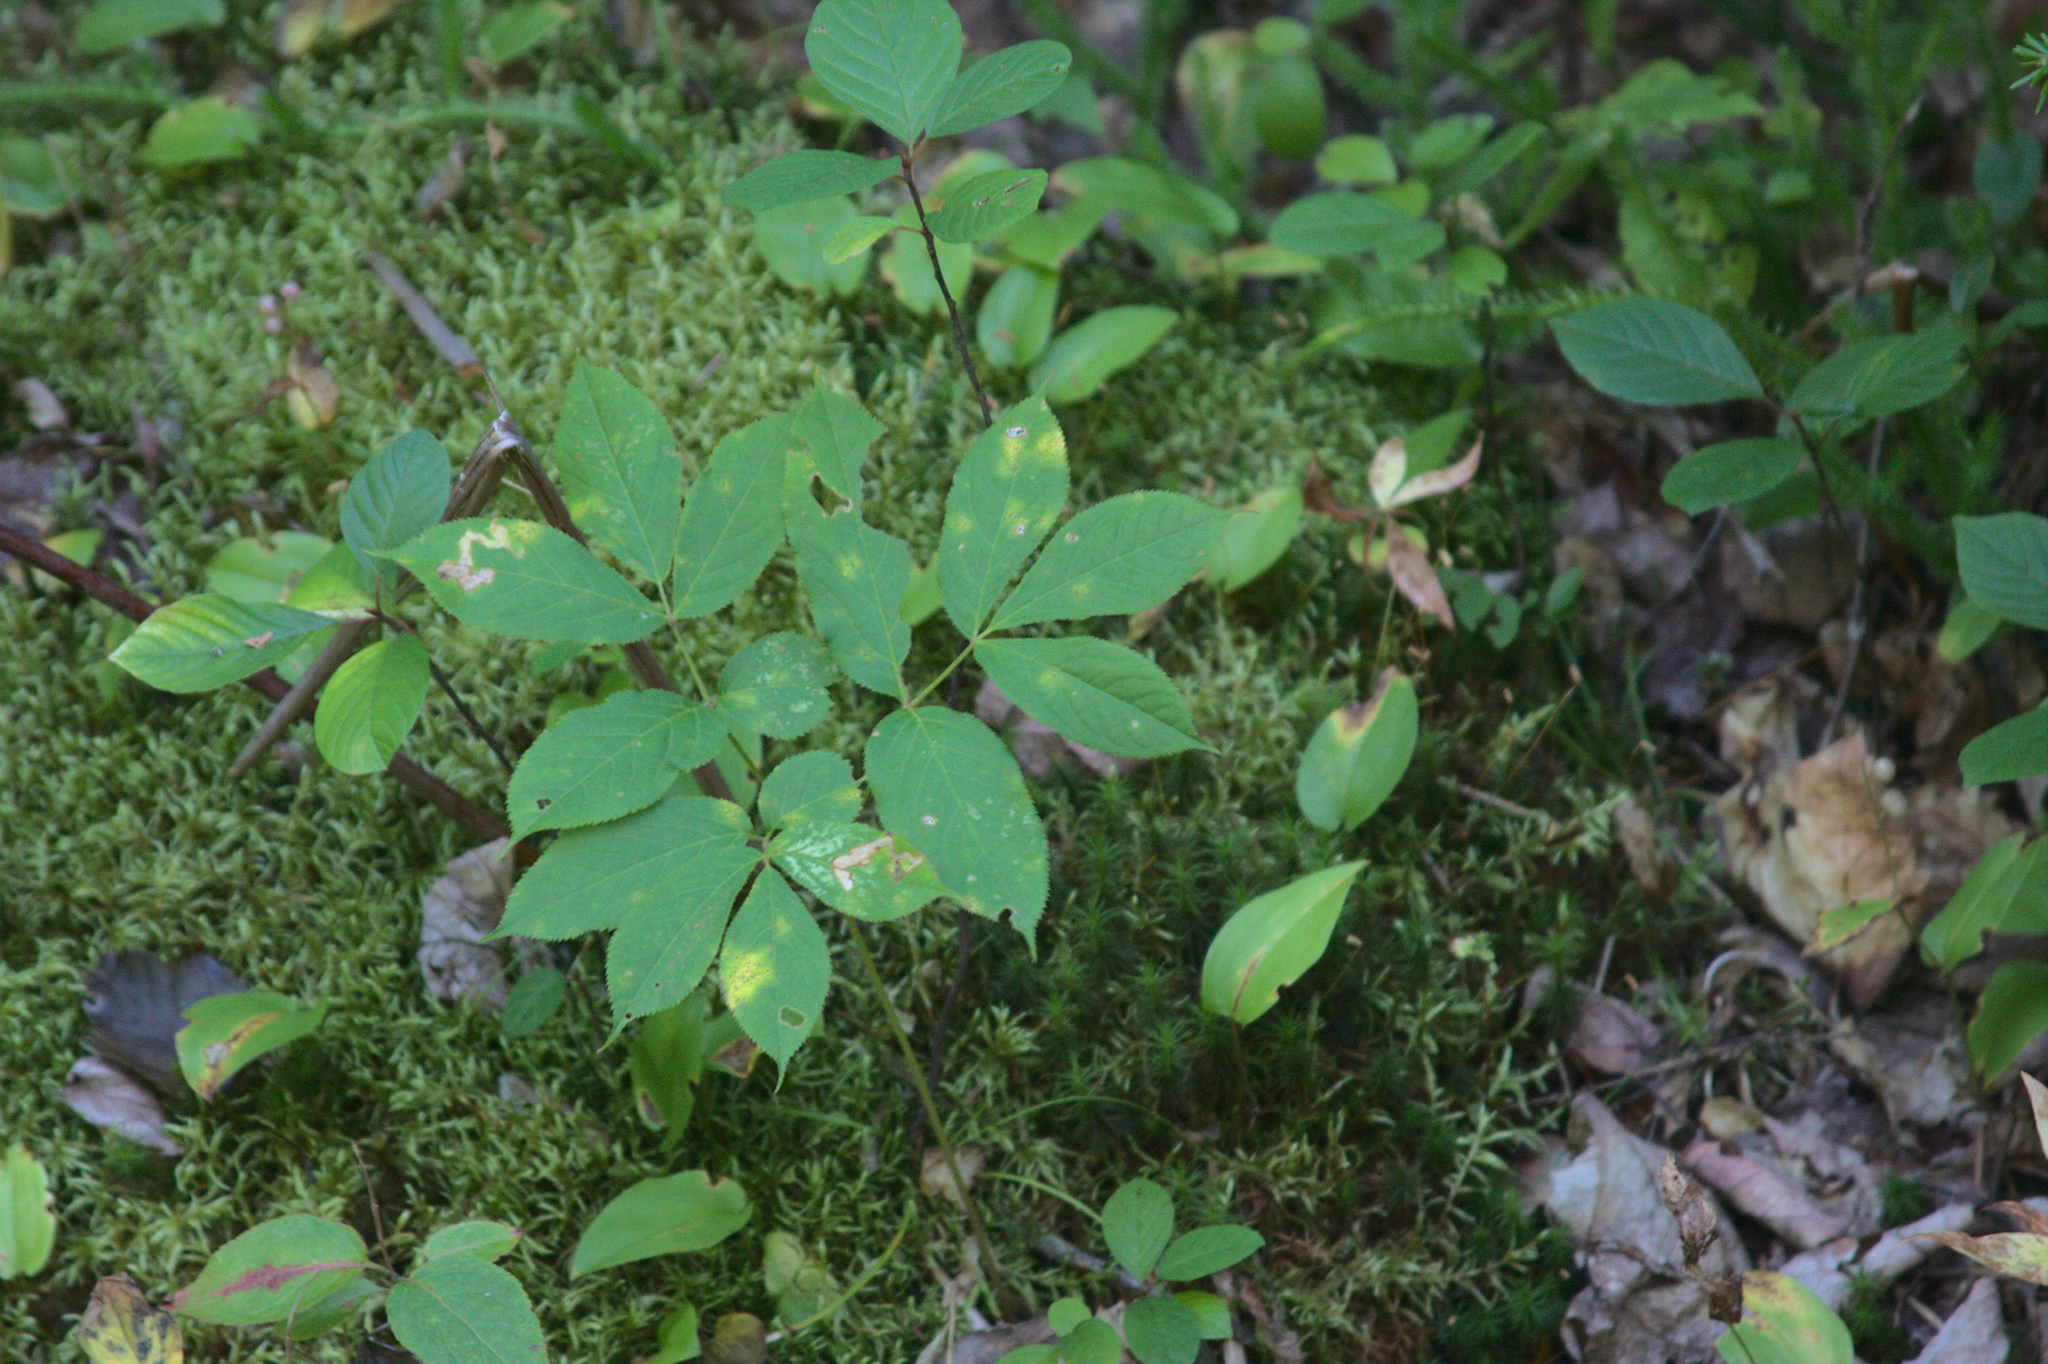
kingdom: Plantae
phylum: Tracheophyta
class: Magnoliopsida
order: Apiales
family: Araliaceae
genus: Aralia
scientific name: Aralia nudicaulis
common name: Wild sarsaparilla
